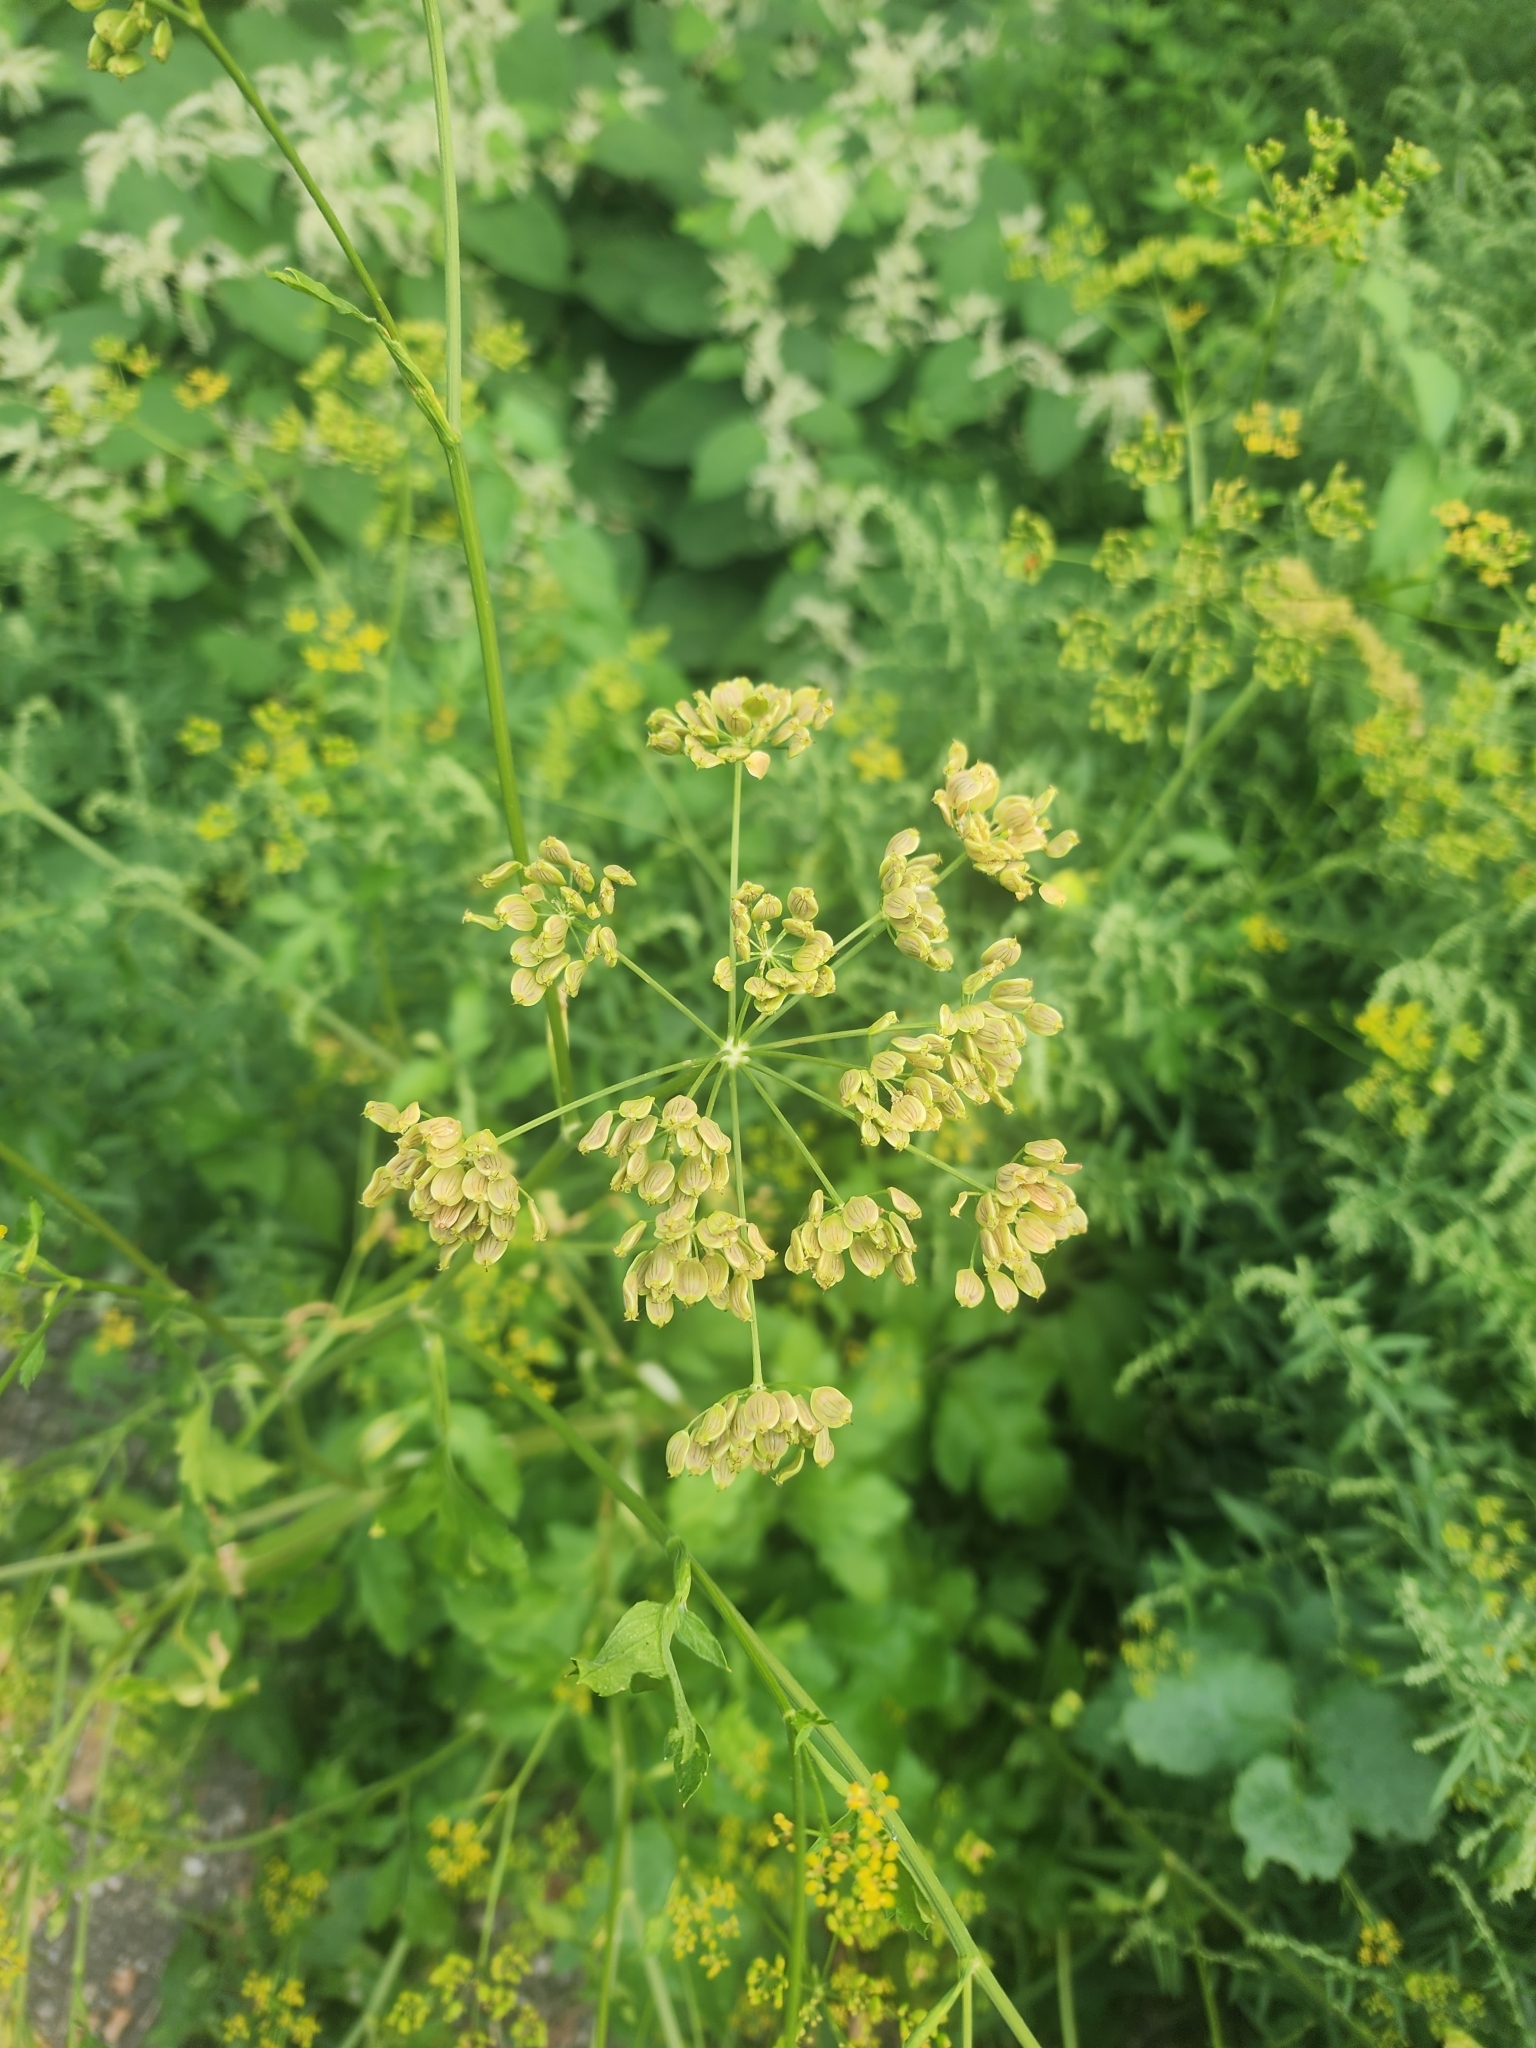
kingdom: Plantae
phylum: Tracheophyta
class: Magnoliopsida
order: Apiales
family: Apiaceae
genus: Pastinaca
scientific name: Pastinaca sativa
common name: Wild parsnip
